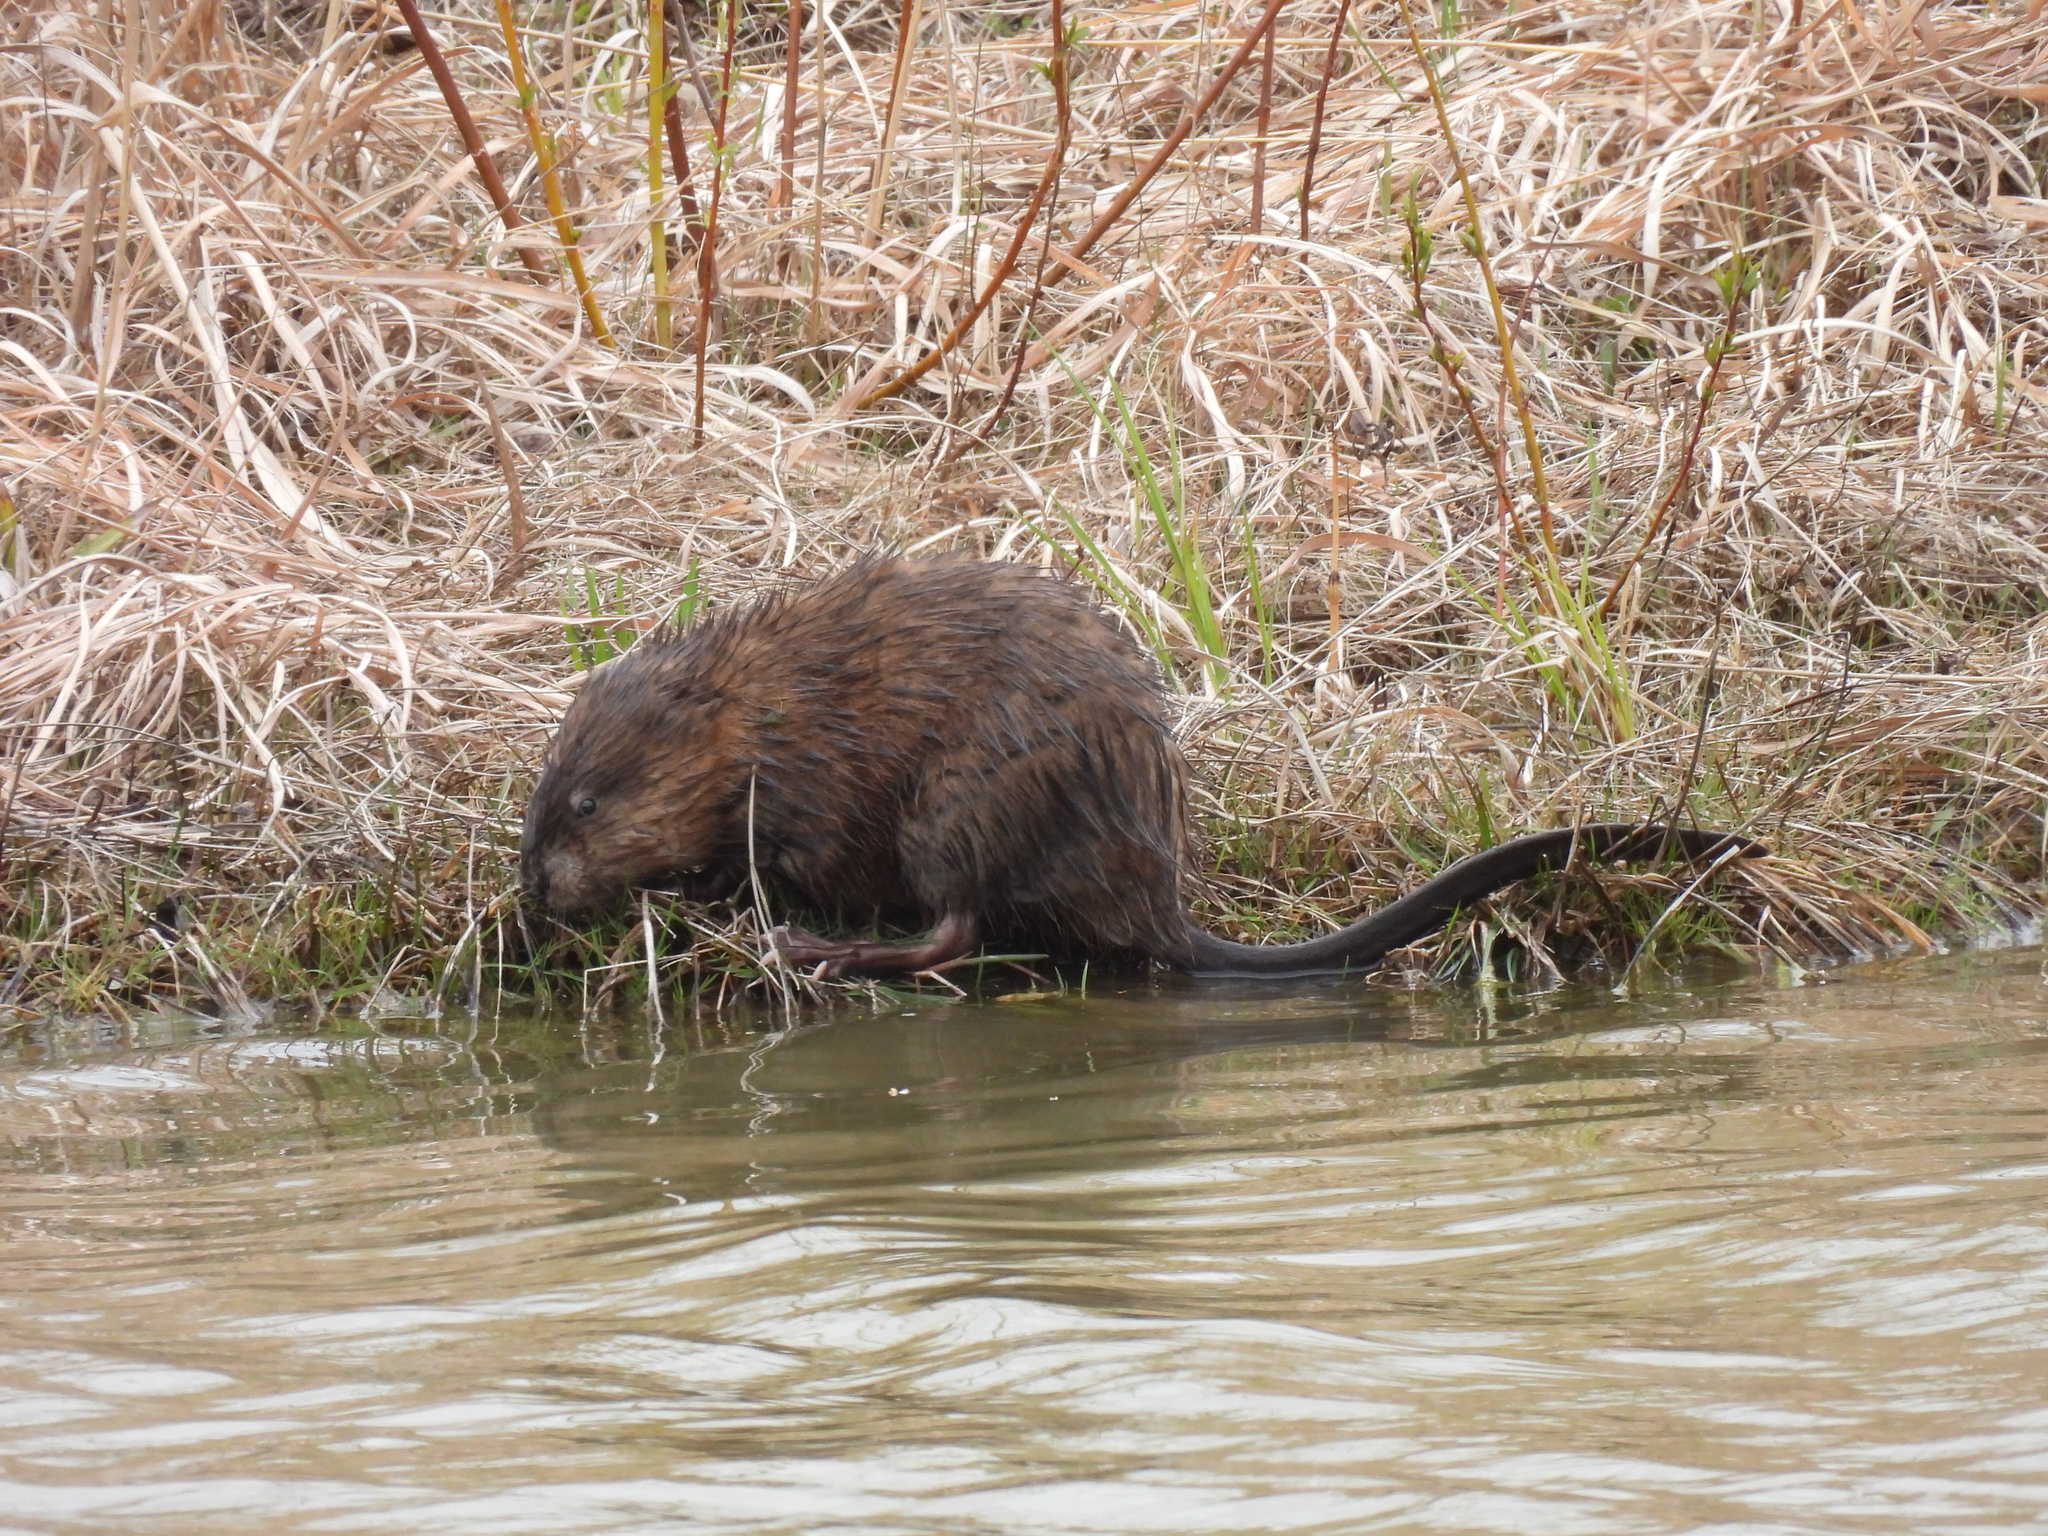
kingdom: Animalia
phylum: Chordata
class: Mammalia
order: Rodentia
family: Cricetidae
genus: Ondatra
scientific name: Ondatra zibethicus
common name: Muskrat
